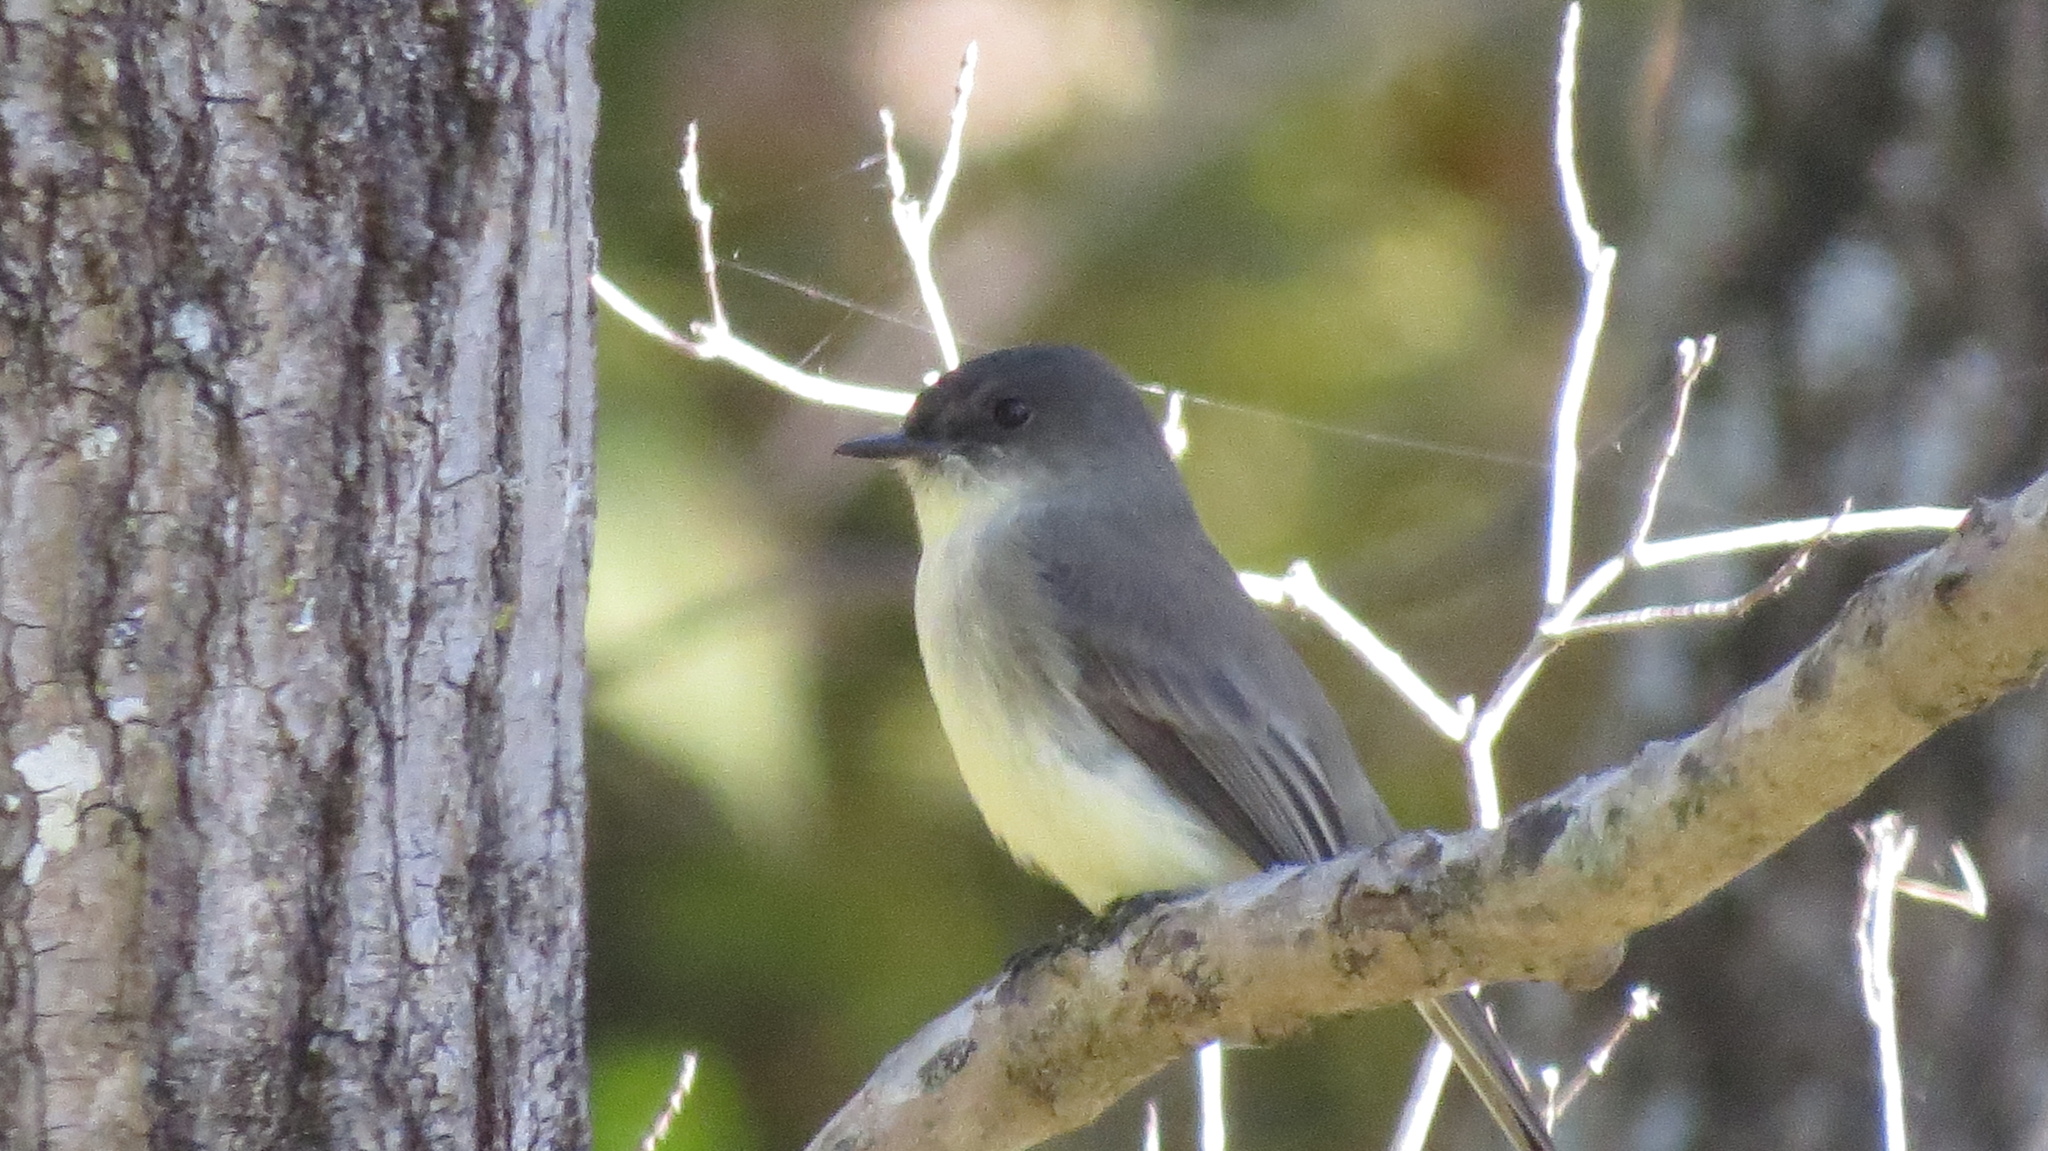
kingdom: Animalia
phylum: Chordata
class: Aves
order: Passeriformes
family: Tyrannidae
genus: Sayornis
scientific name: Sayornis phoebe
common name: Eastern phoebe
